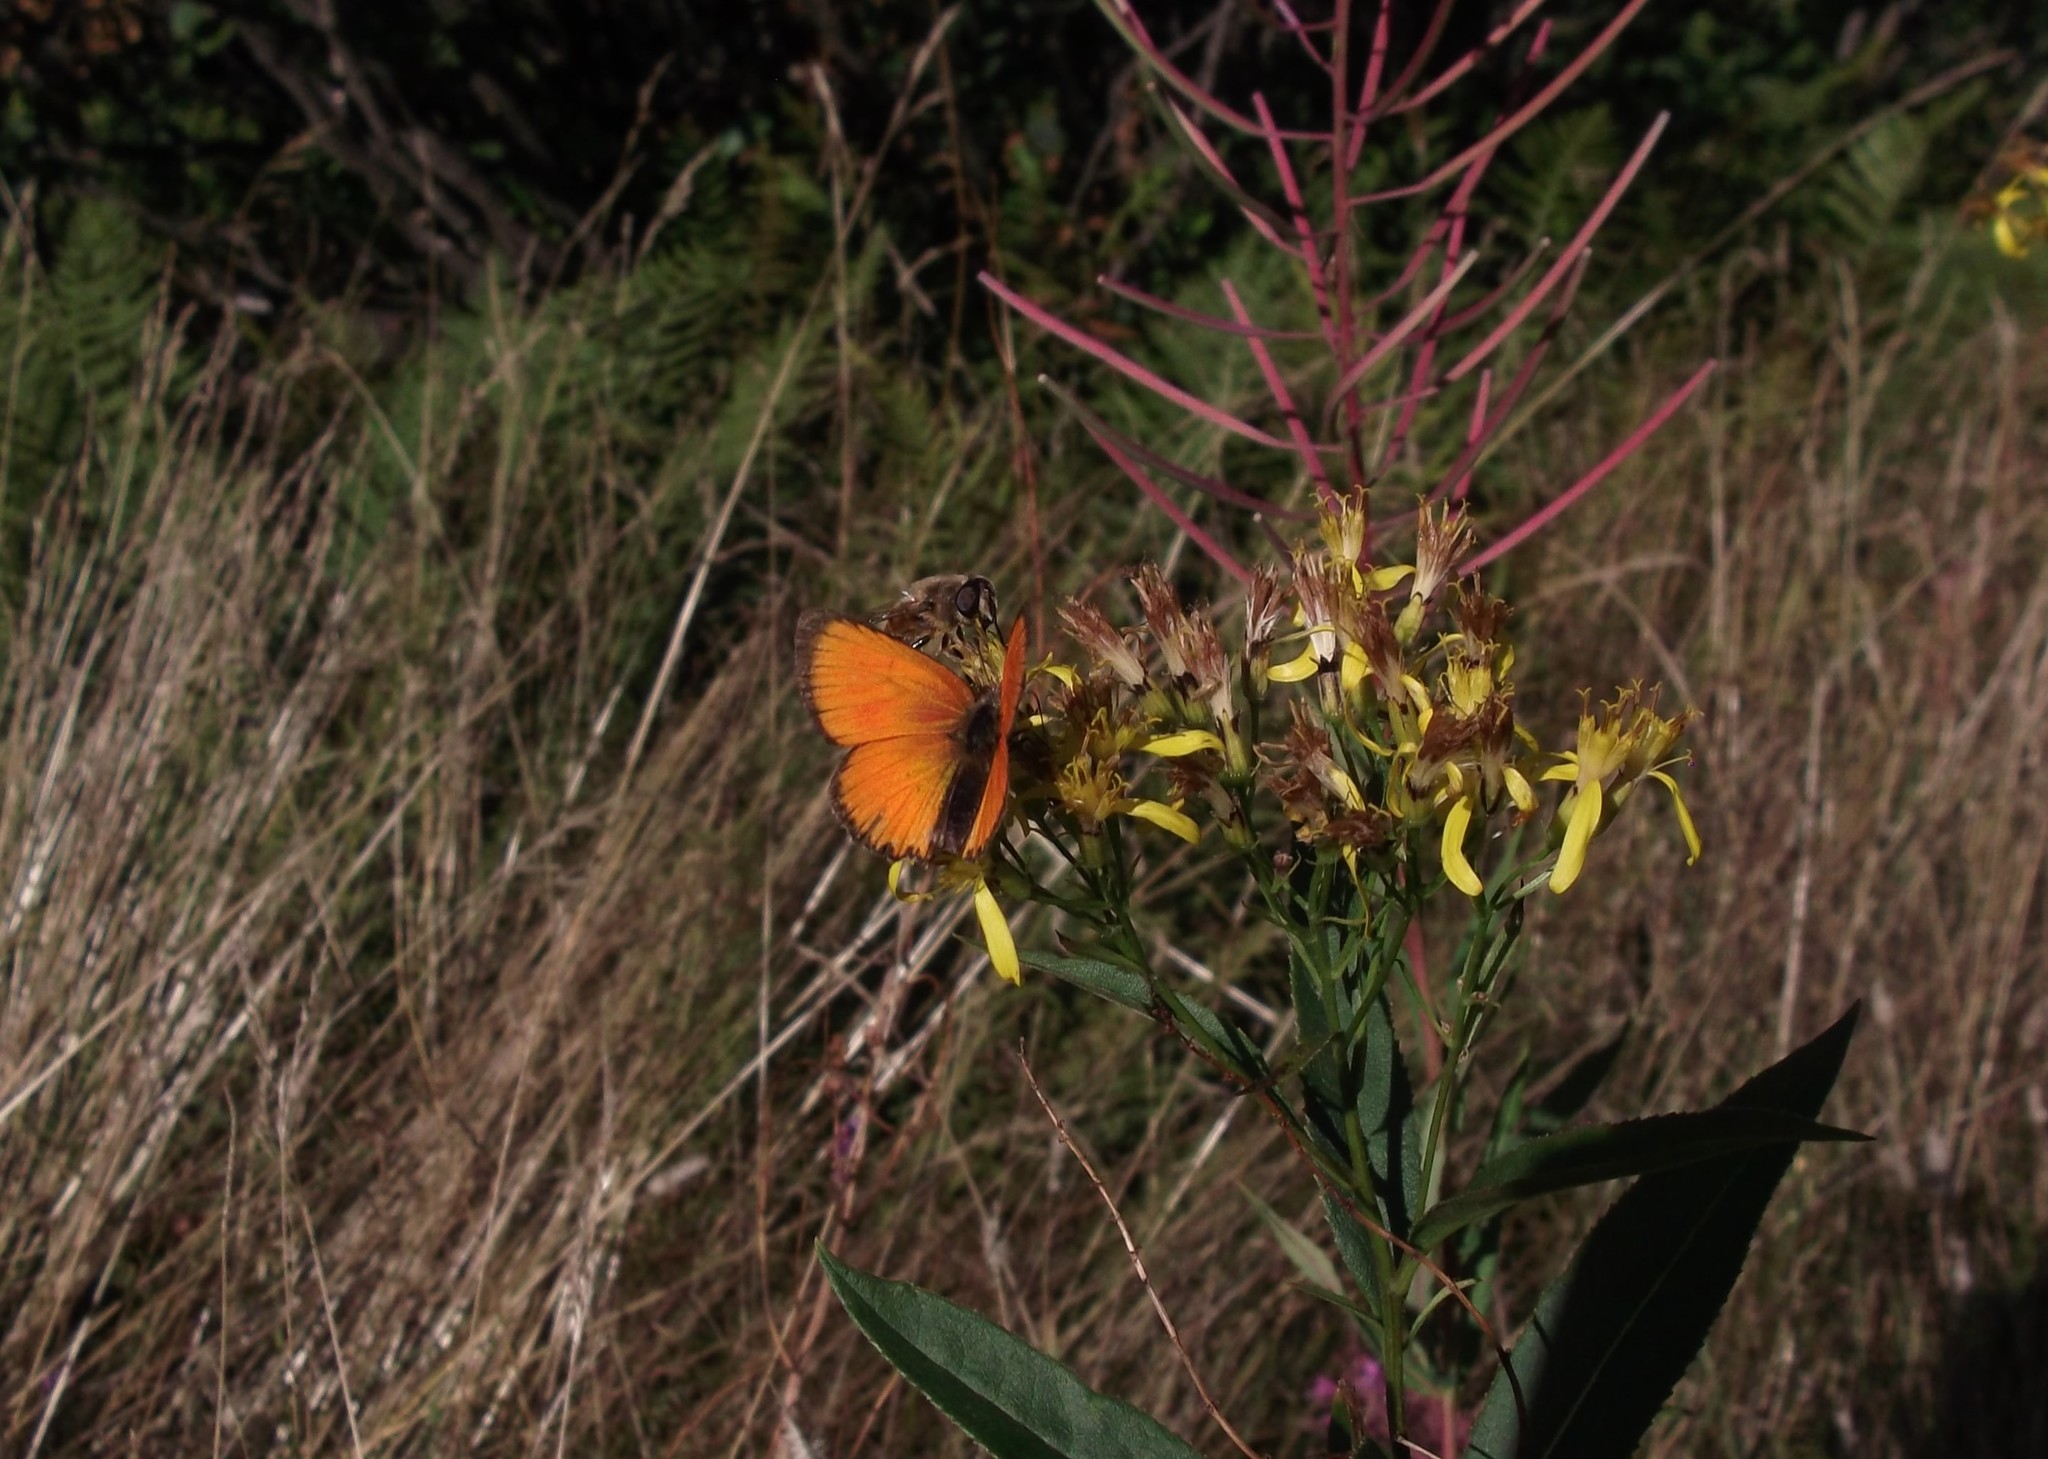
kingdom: Animalia
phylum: Arthropoda
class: Insecta
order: Lepidoptera
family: Lycaenidae
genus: Lycaena
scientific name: Lycaena virgaureae
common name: Scarce copper
